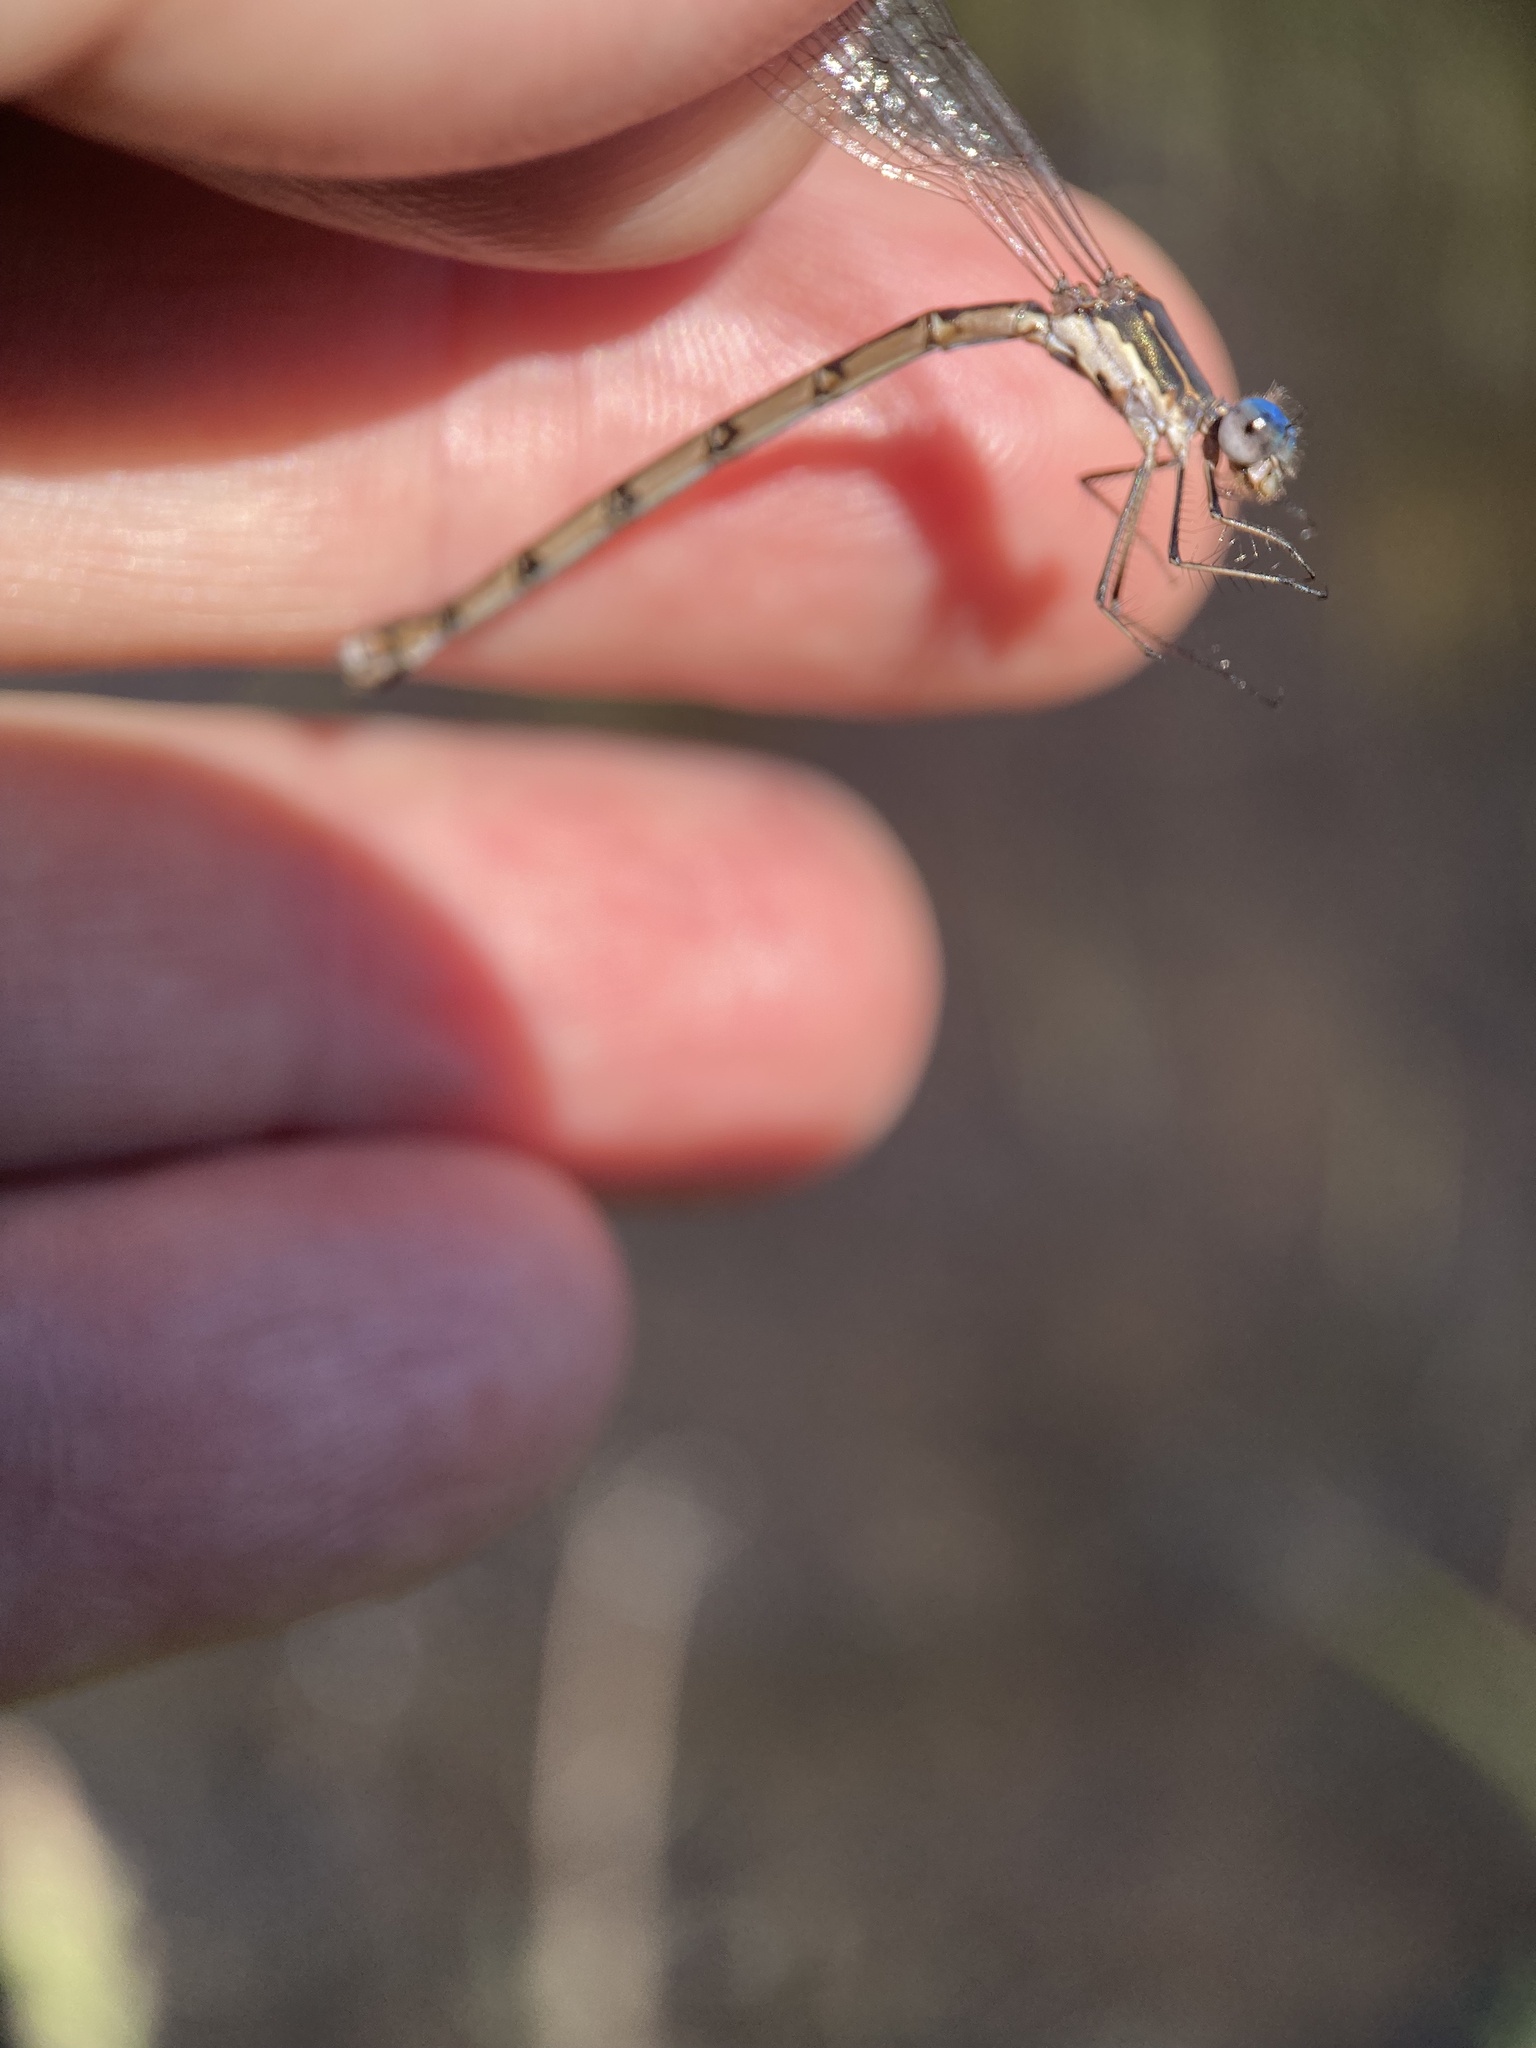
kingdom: Animalia
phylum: Arthropoda
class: Insecta
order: Odonata
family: Lestidae
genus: Lestes
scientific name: Lestes congener
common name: Spotted spreadwing
